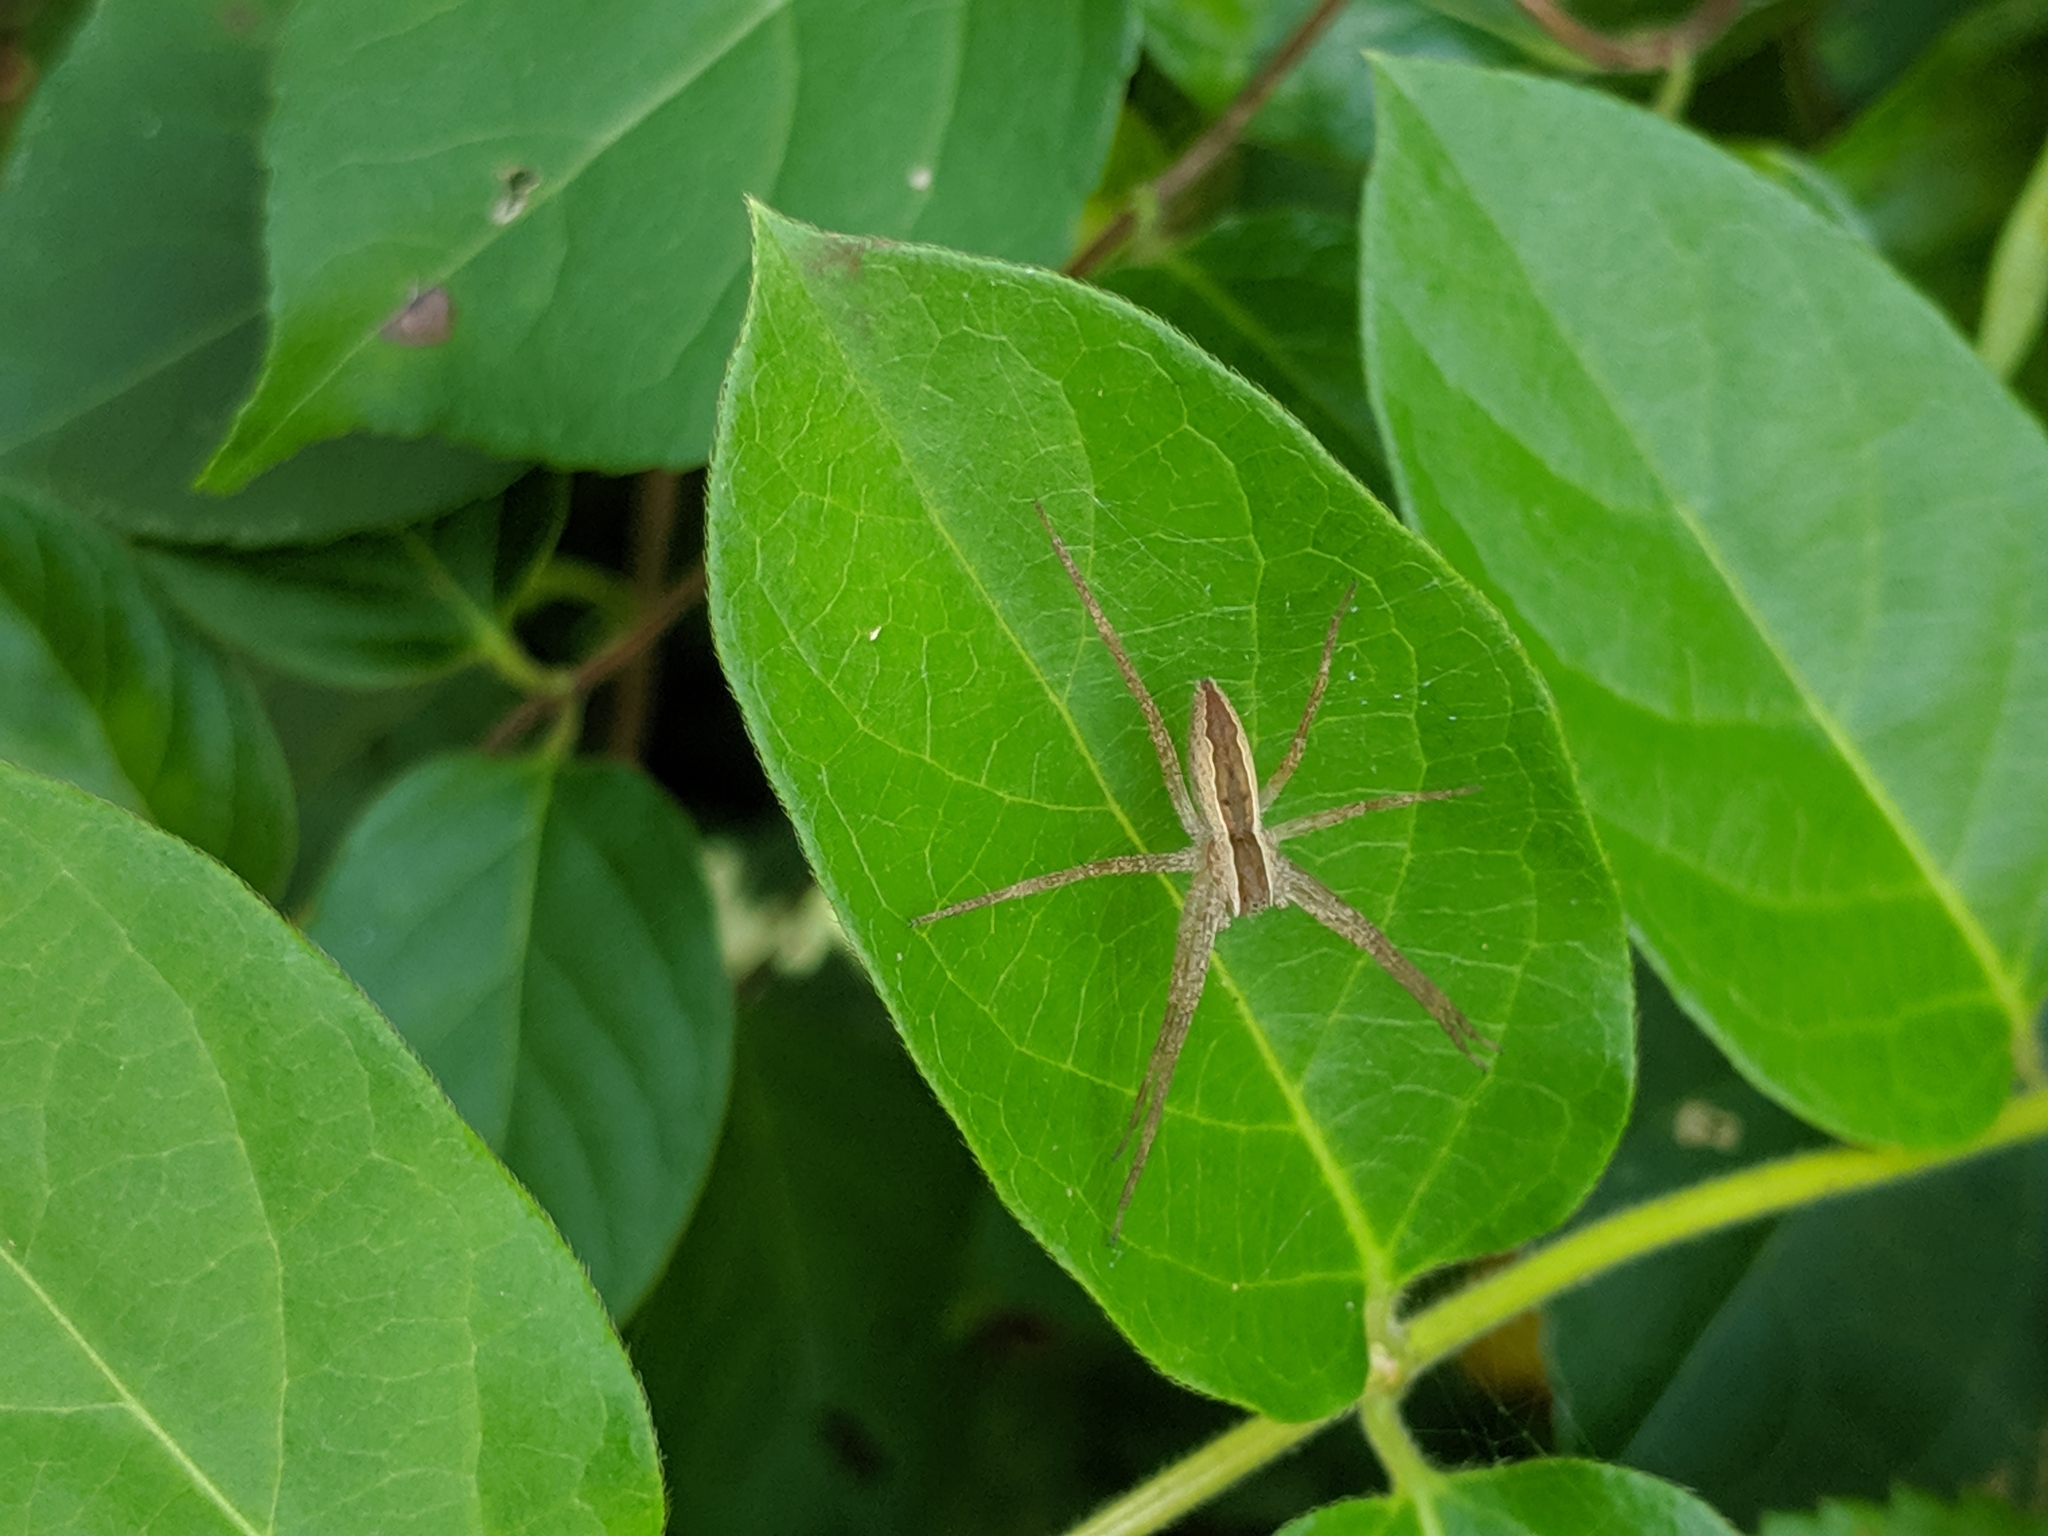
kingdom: Animalia
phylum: Arthropoda
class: Arachnida
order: Araneae
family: Pisauridae
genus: Pisaurina
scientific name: Pisaurina mira
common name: American nursery web spider
